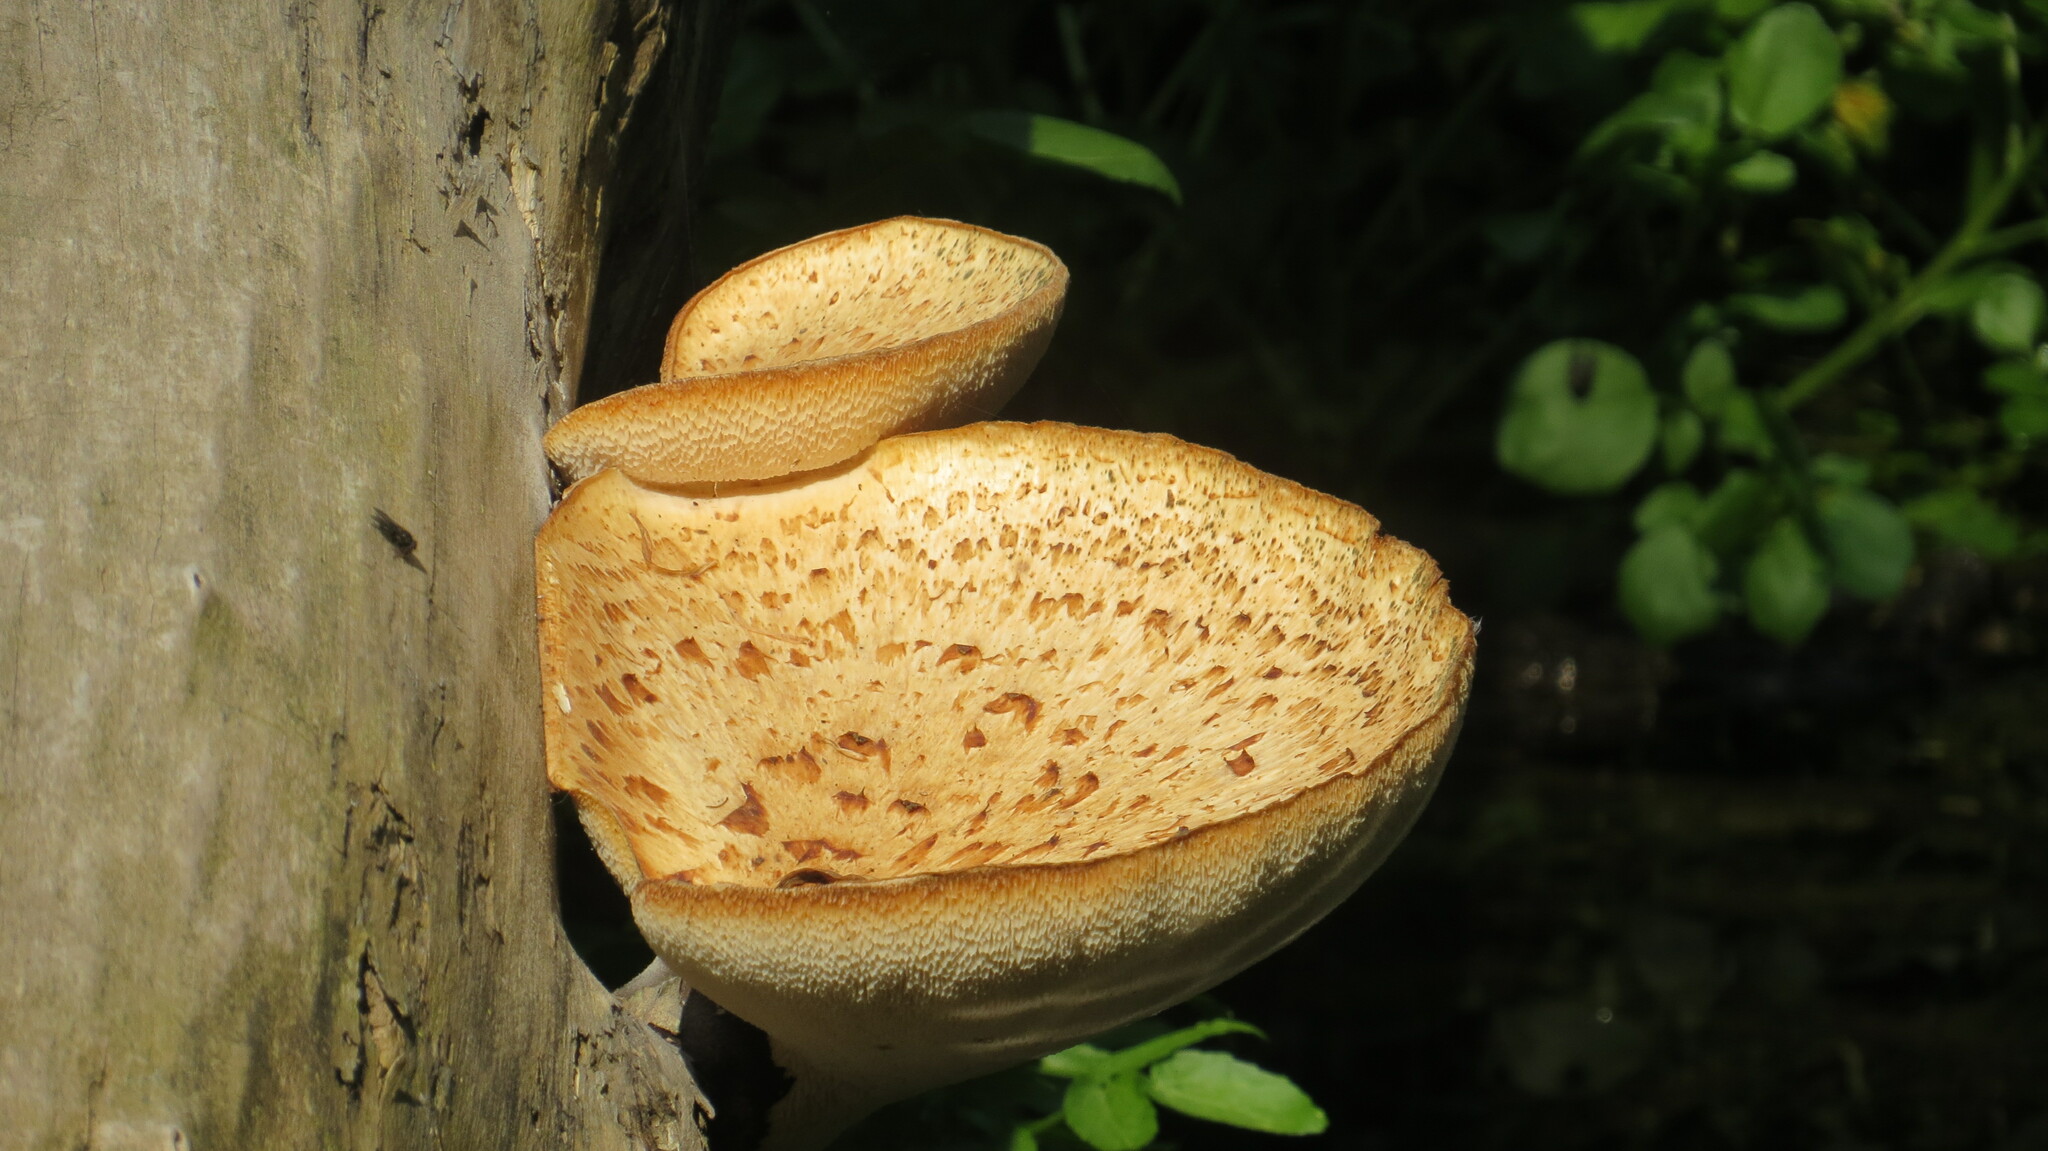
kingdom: Fungi
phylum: Basidiomycota
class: Agaricomycetes
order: Polyporales
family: Polyporaceae
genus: Cerioporus
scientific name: Cerioporus squamosus
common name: Dryad's saddle
